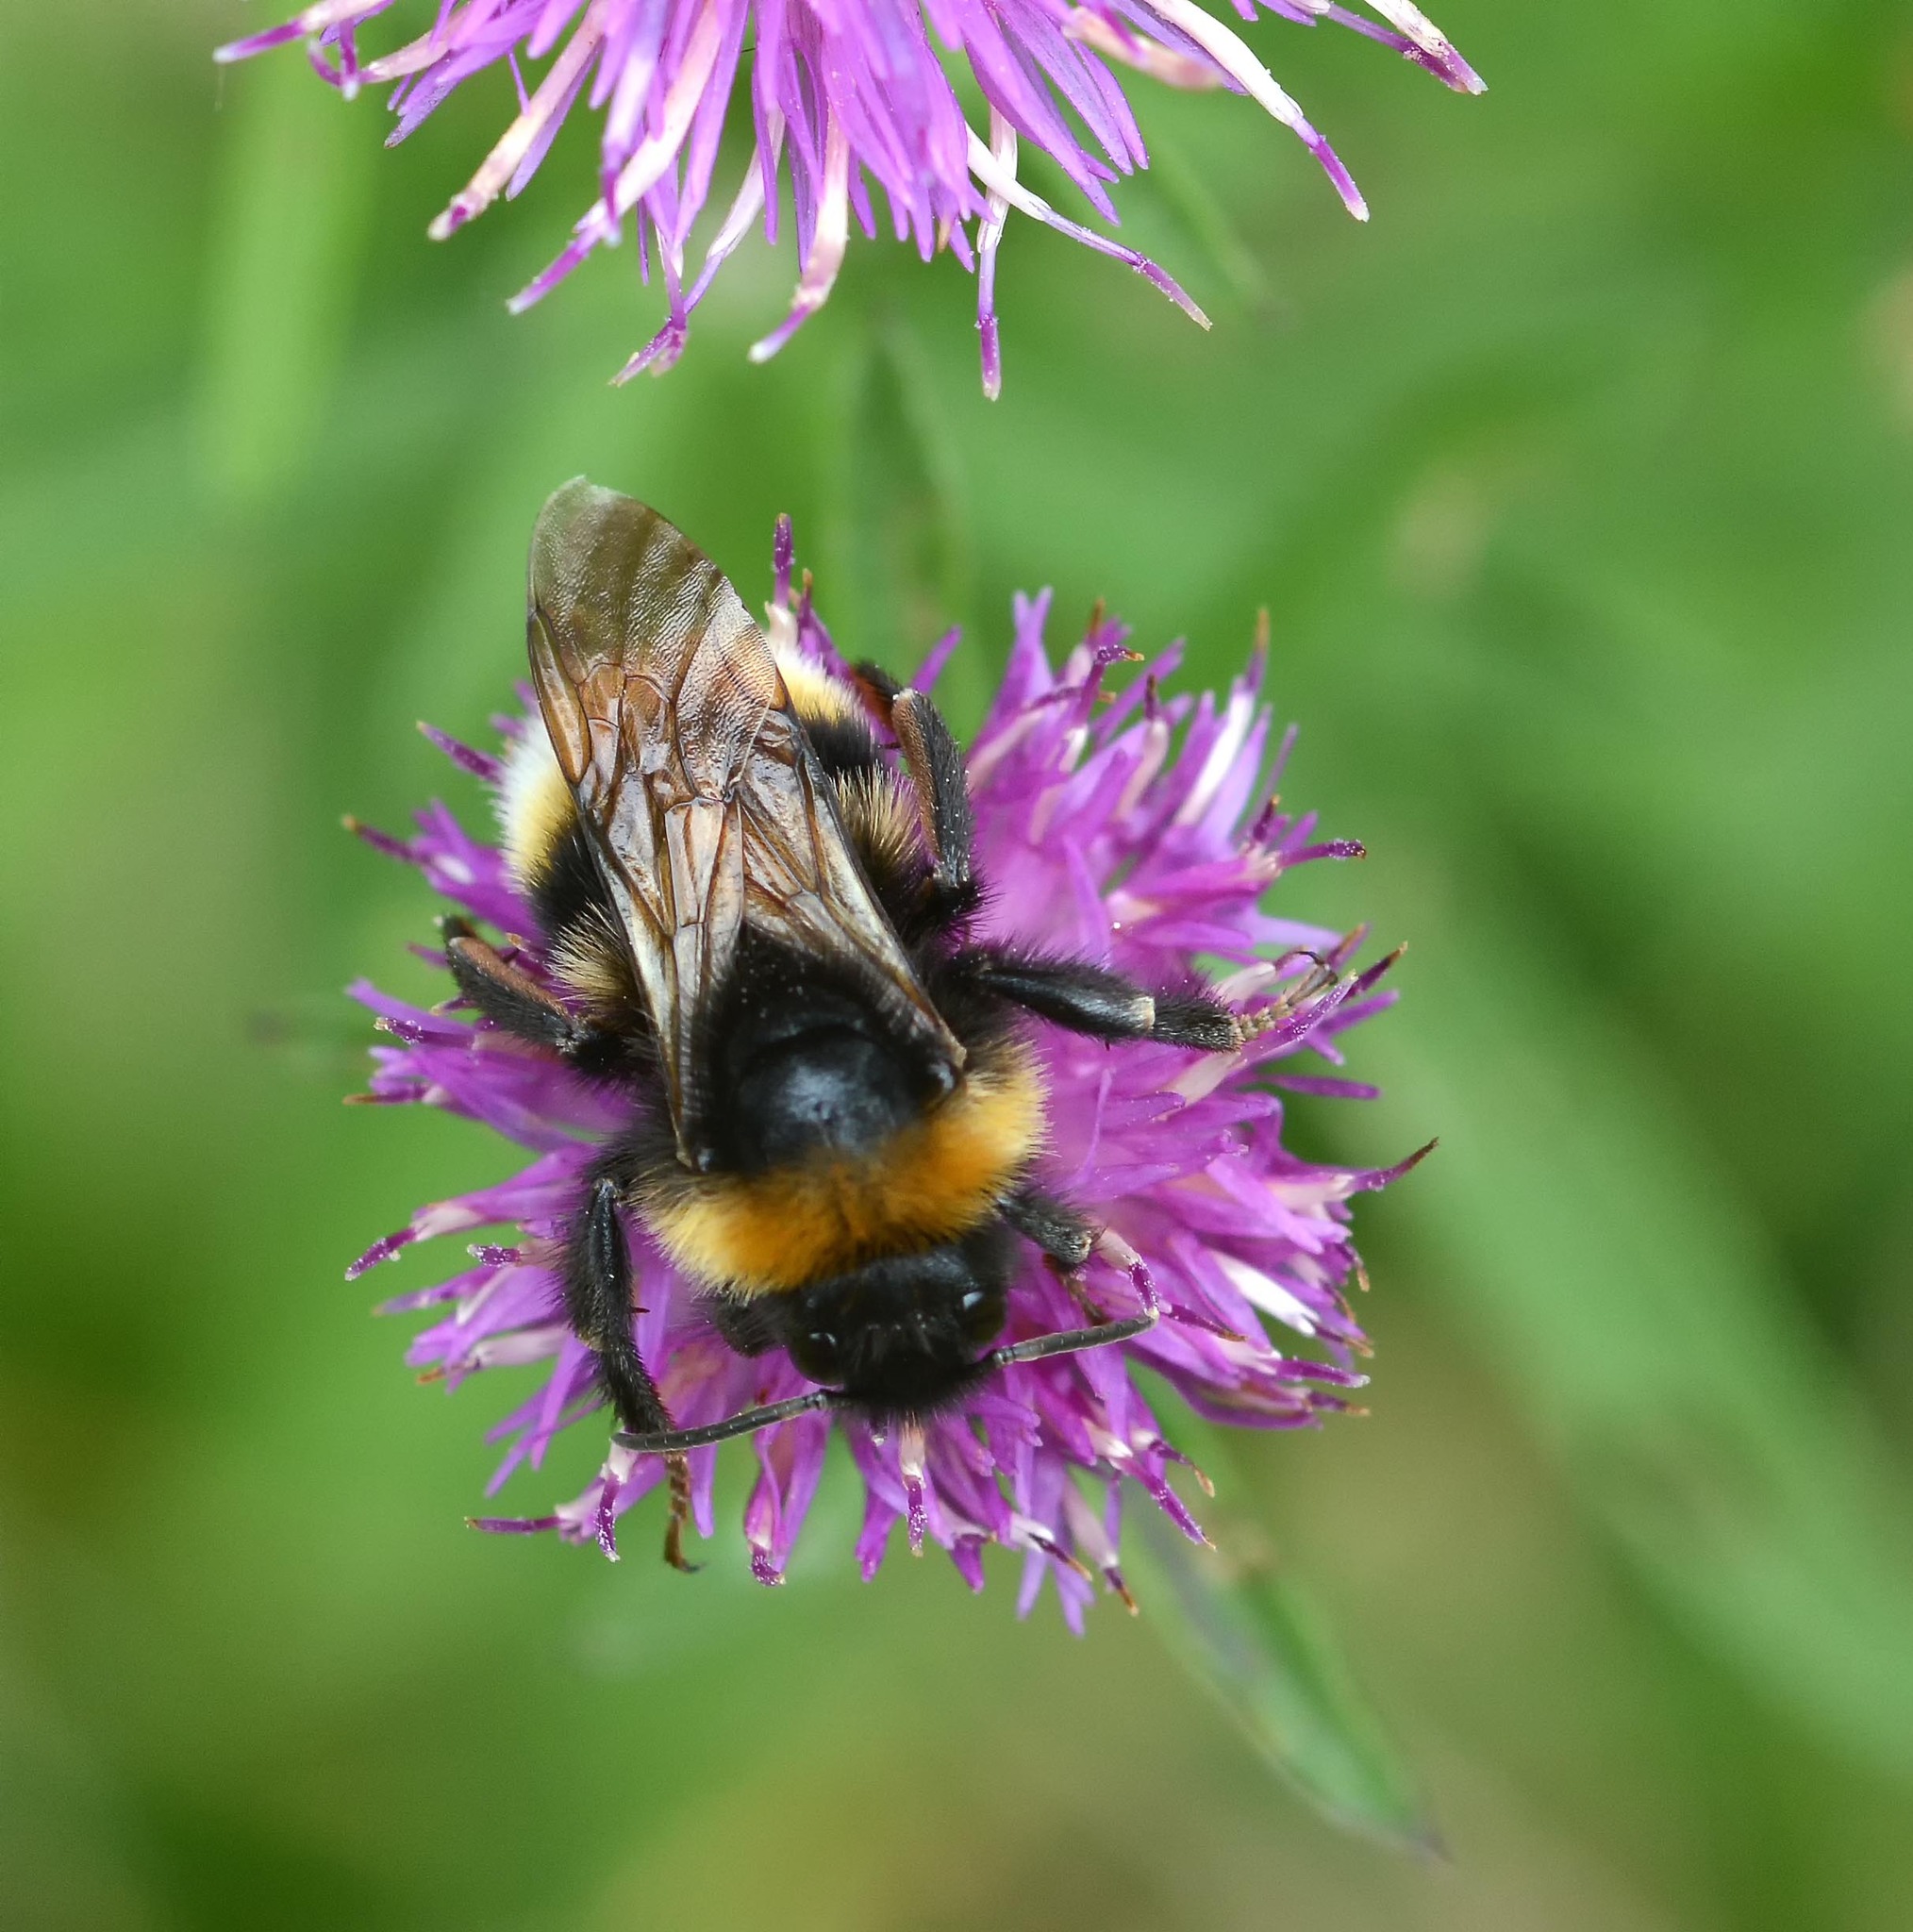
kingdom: Animalia
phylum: Arthropoda
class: Insecta
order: Hymenoptera
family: Apidae
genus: Bombus
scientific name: Bombus vestalis
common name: Vestal cuckoo bee
